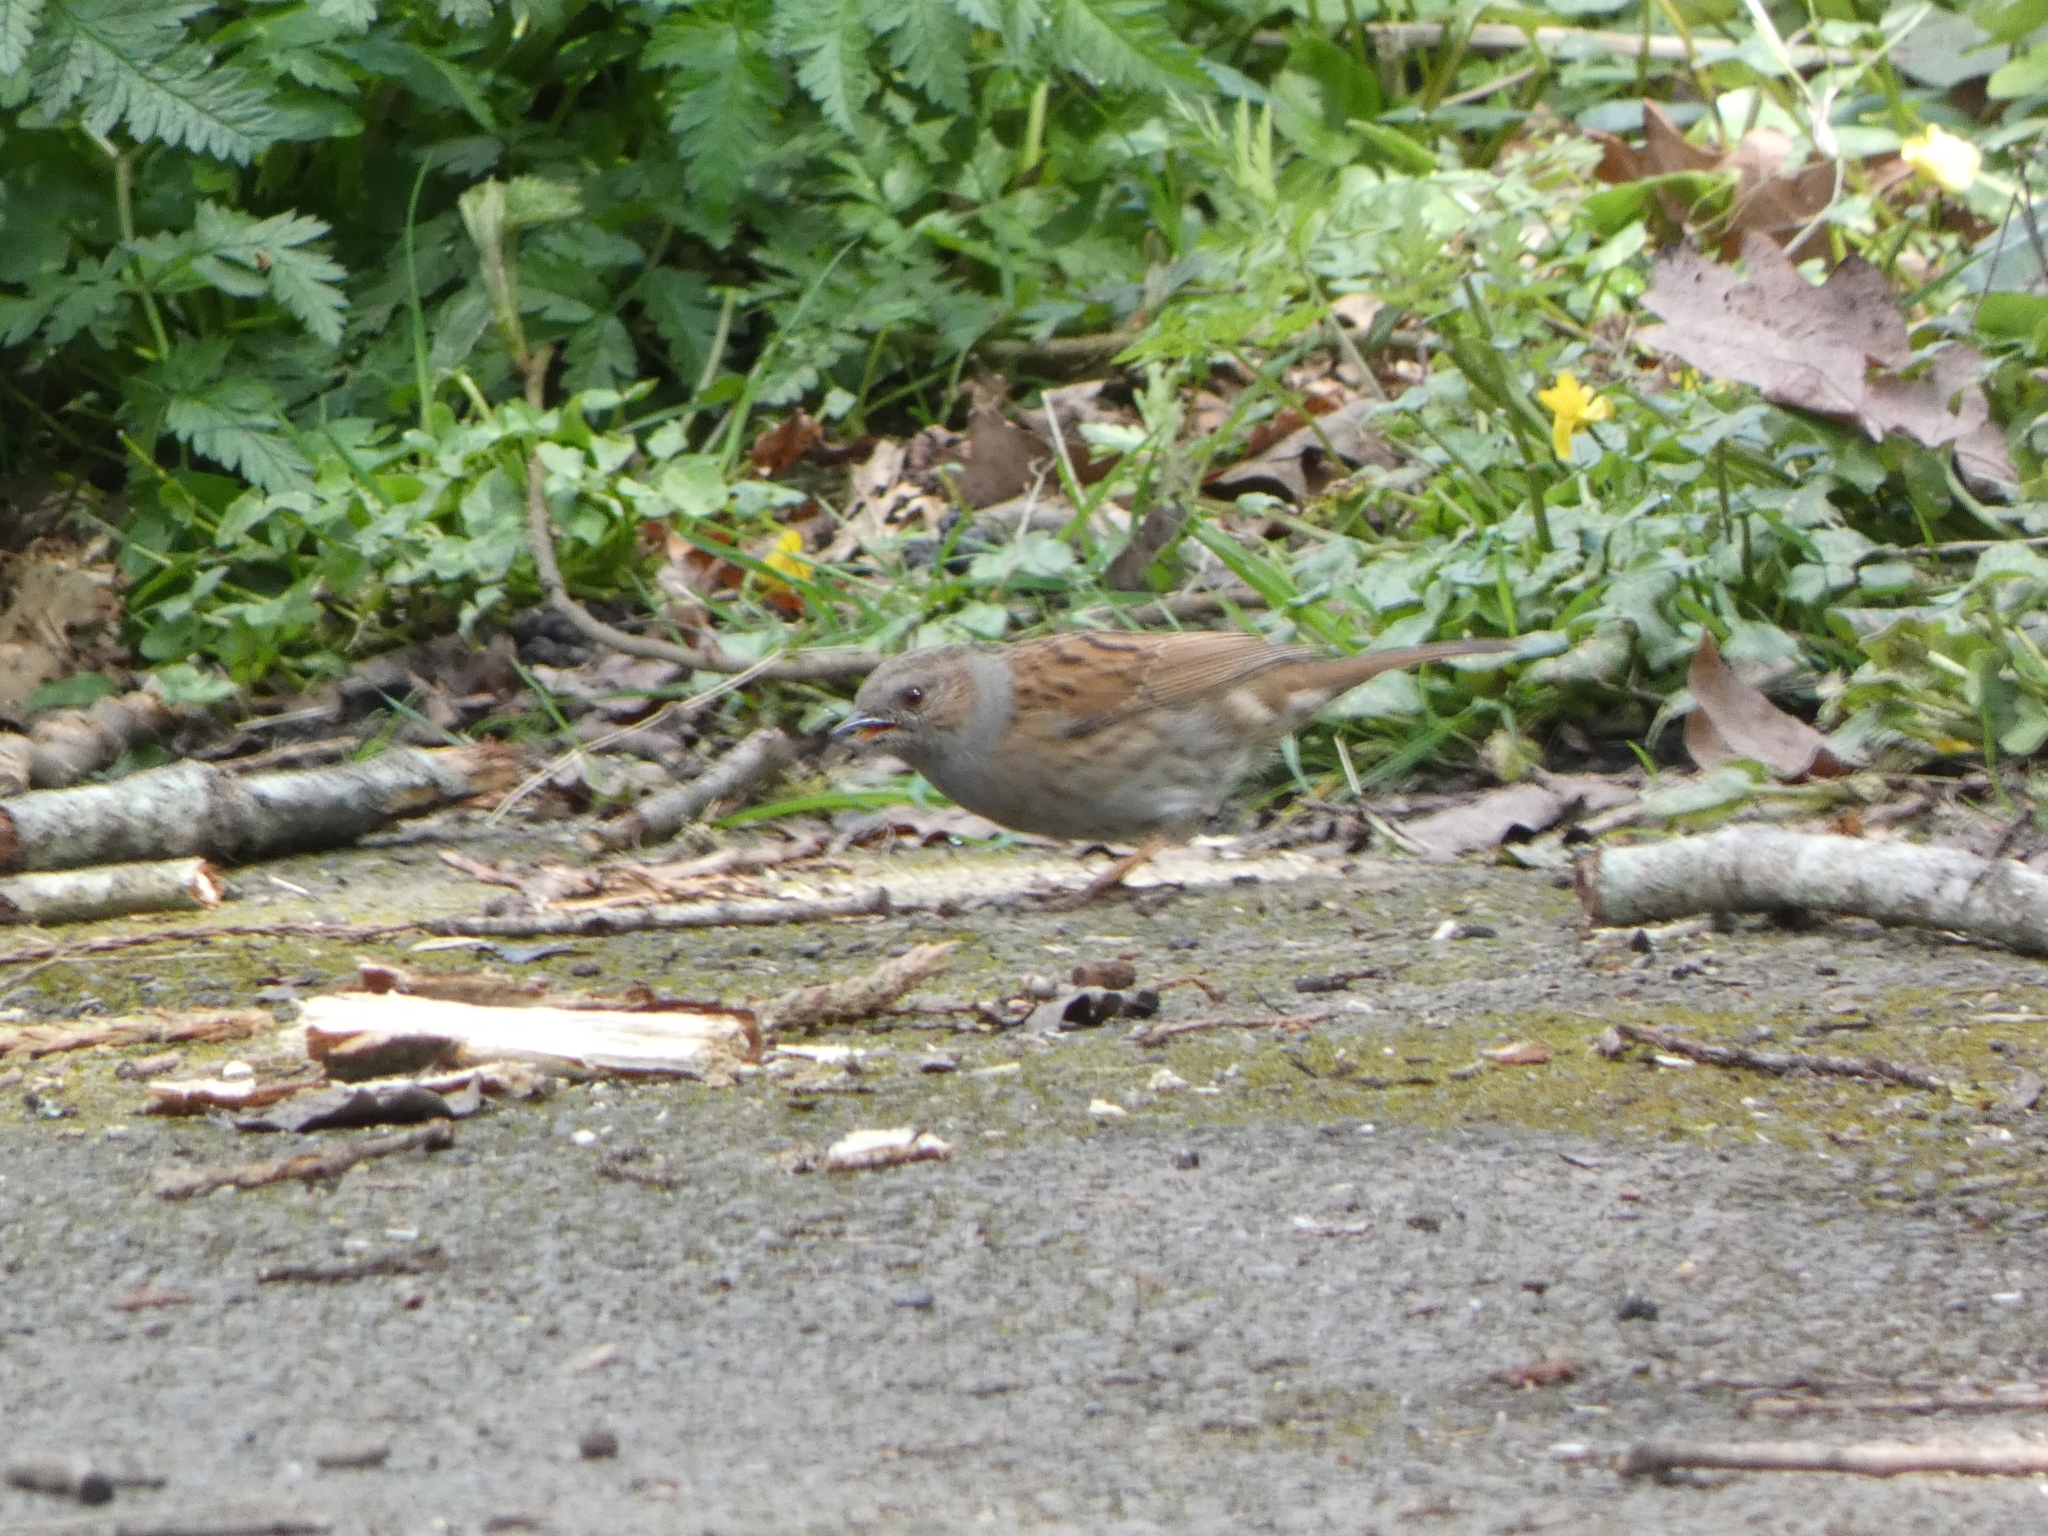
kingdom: Animalia
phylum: Chordata
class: Aves
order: Passeriformes
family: Prunellidae
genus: Prunella
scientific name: Prunella modularis
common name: Dunnock
